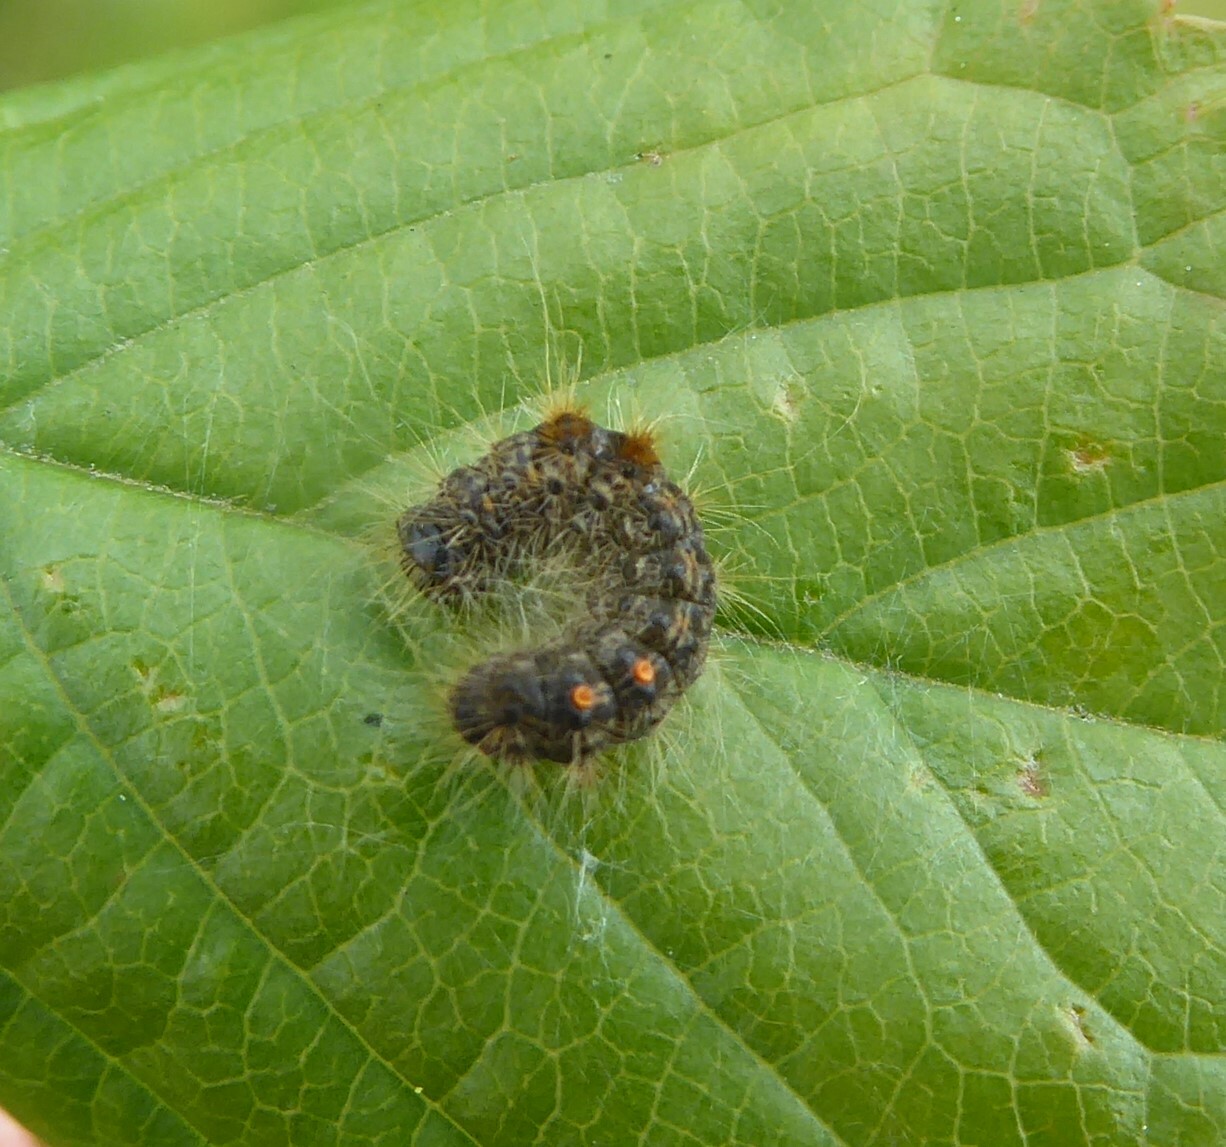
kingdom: Animalia
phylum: Arthropoda
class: Insecta
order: Lepidoptera
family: Erebidae
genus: Euproctis
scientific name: Euproctis chrysorrhoea
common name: Brown-tail
